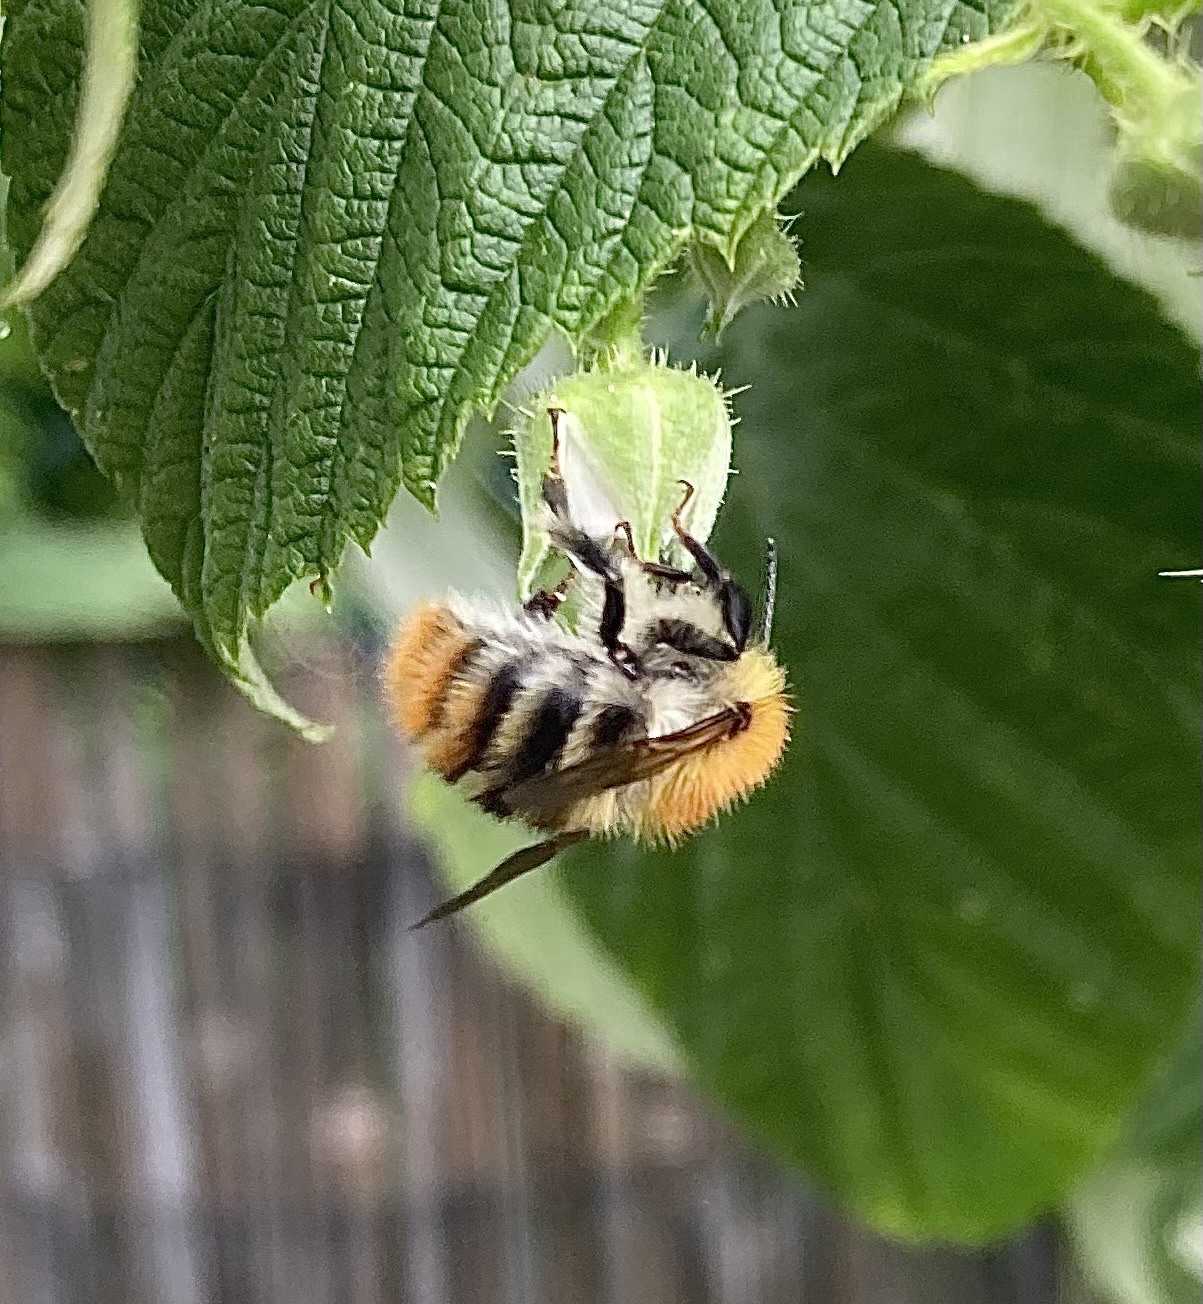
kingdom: Animalia
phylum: Arthropoda
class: Insecta
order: Hymenoptera
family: Apidae
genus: Bombus
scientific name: Bombus pascuorum
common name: Common carder bee
